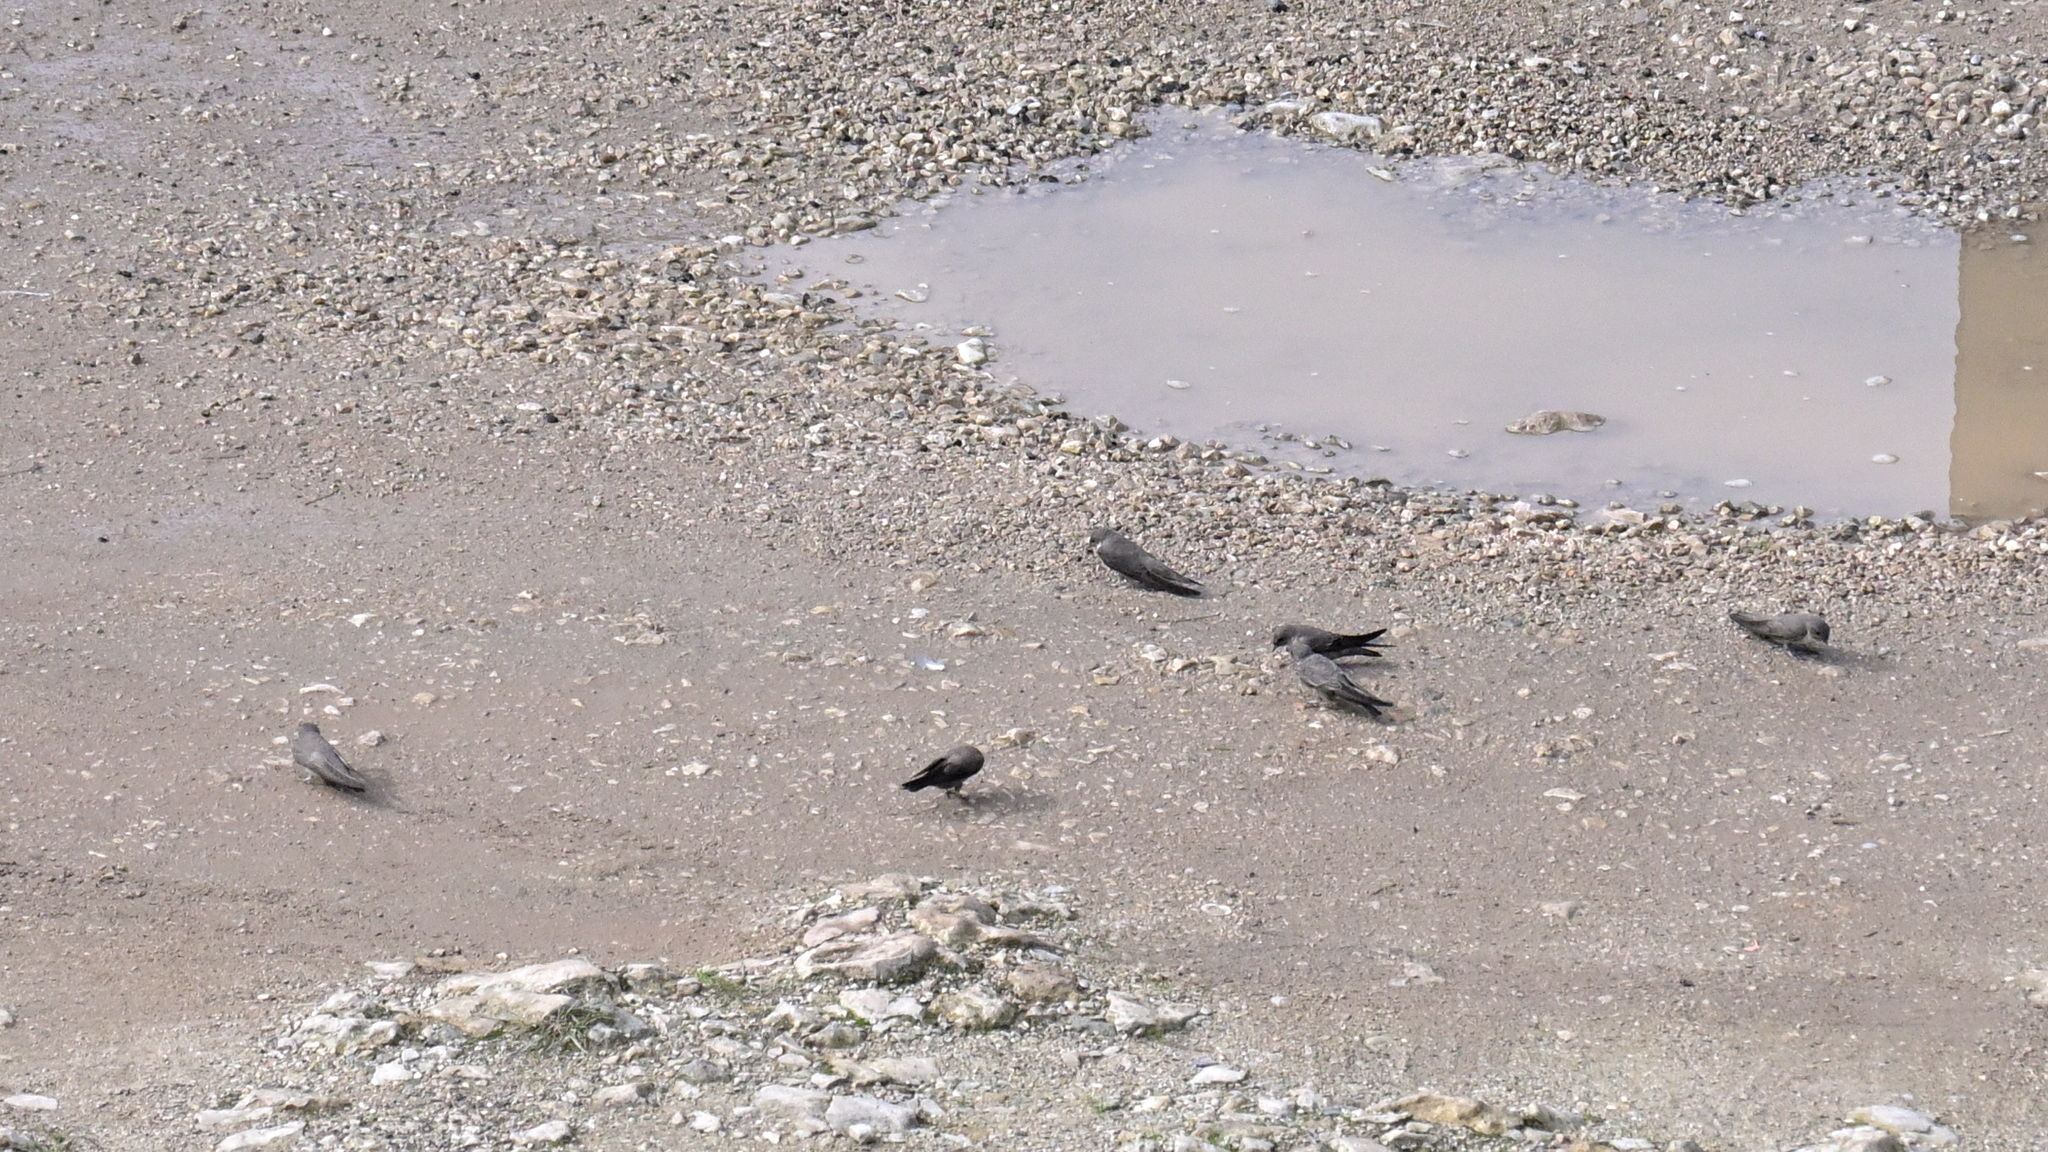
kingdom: Animalia
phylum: Chordata
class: Aves
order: Passeriformes
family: Hirundinidae
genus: Ptyonoprogne
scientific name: Ptyonoprogne rupestris
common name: Eurasian crag martin
